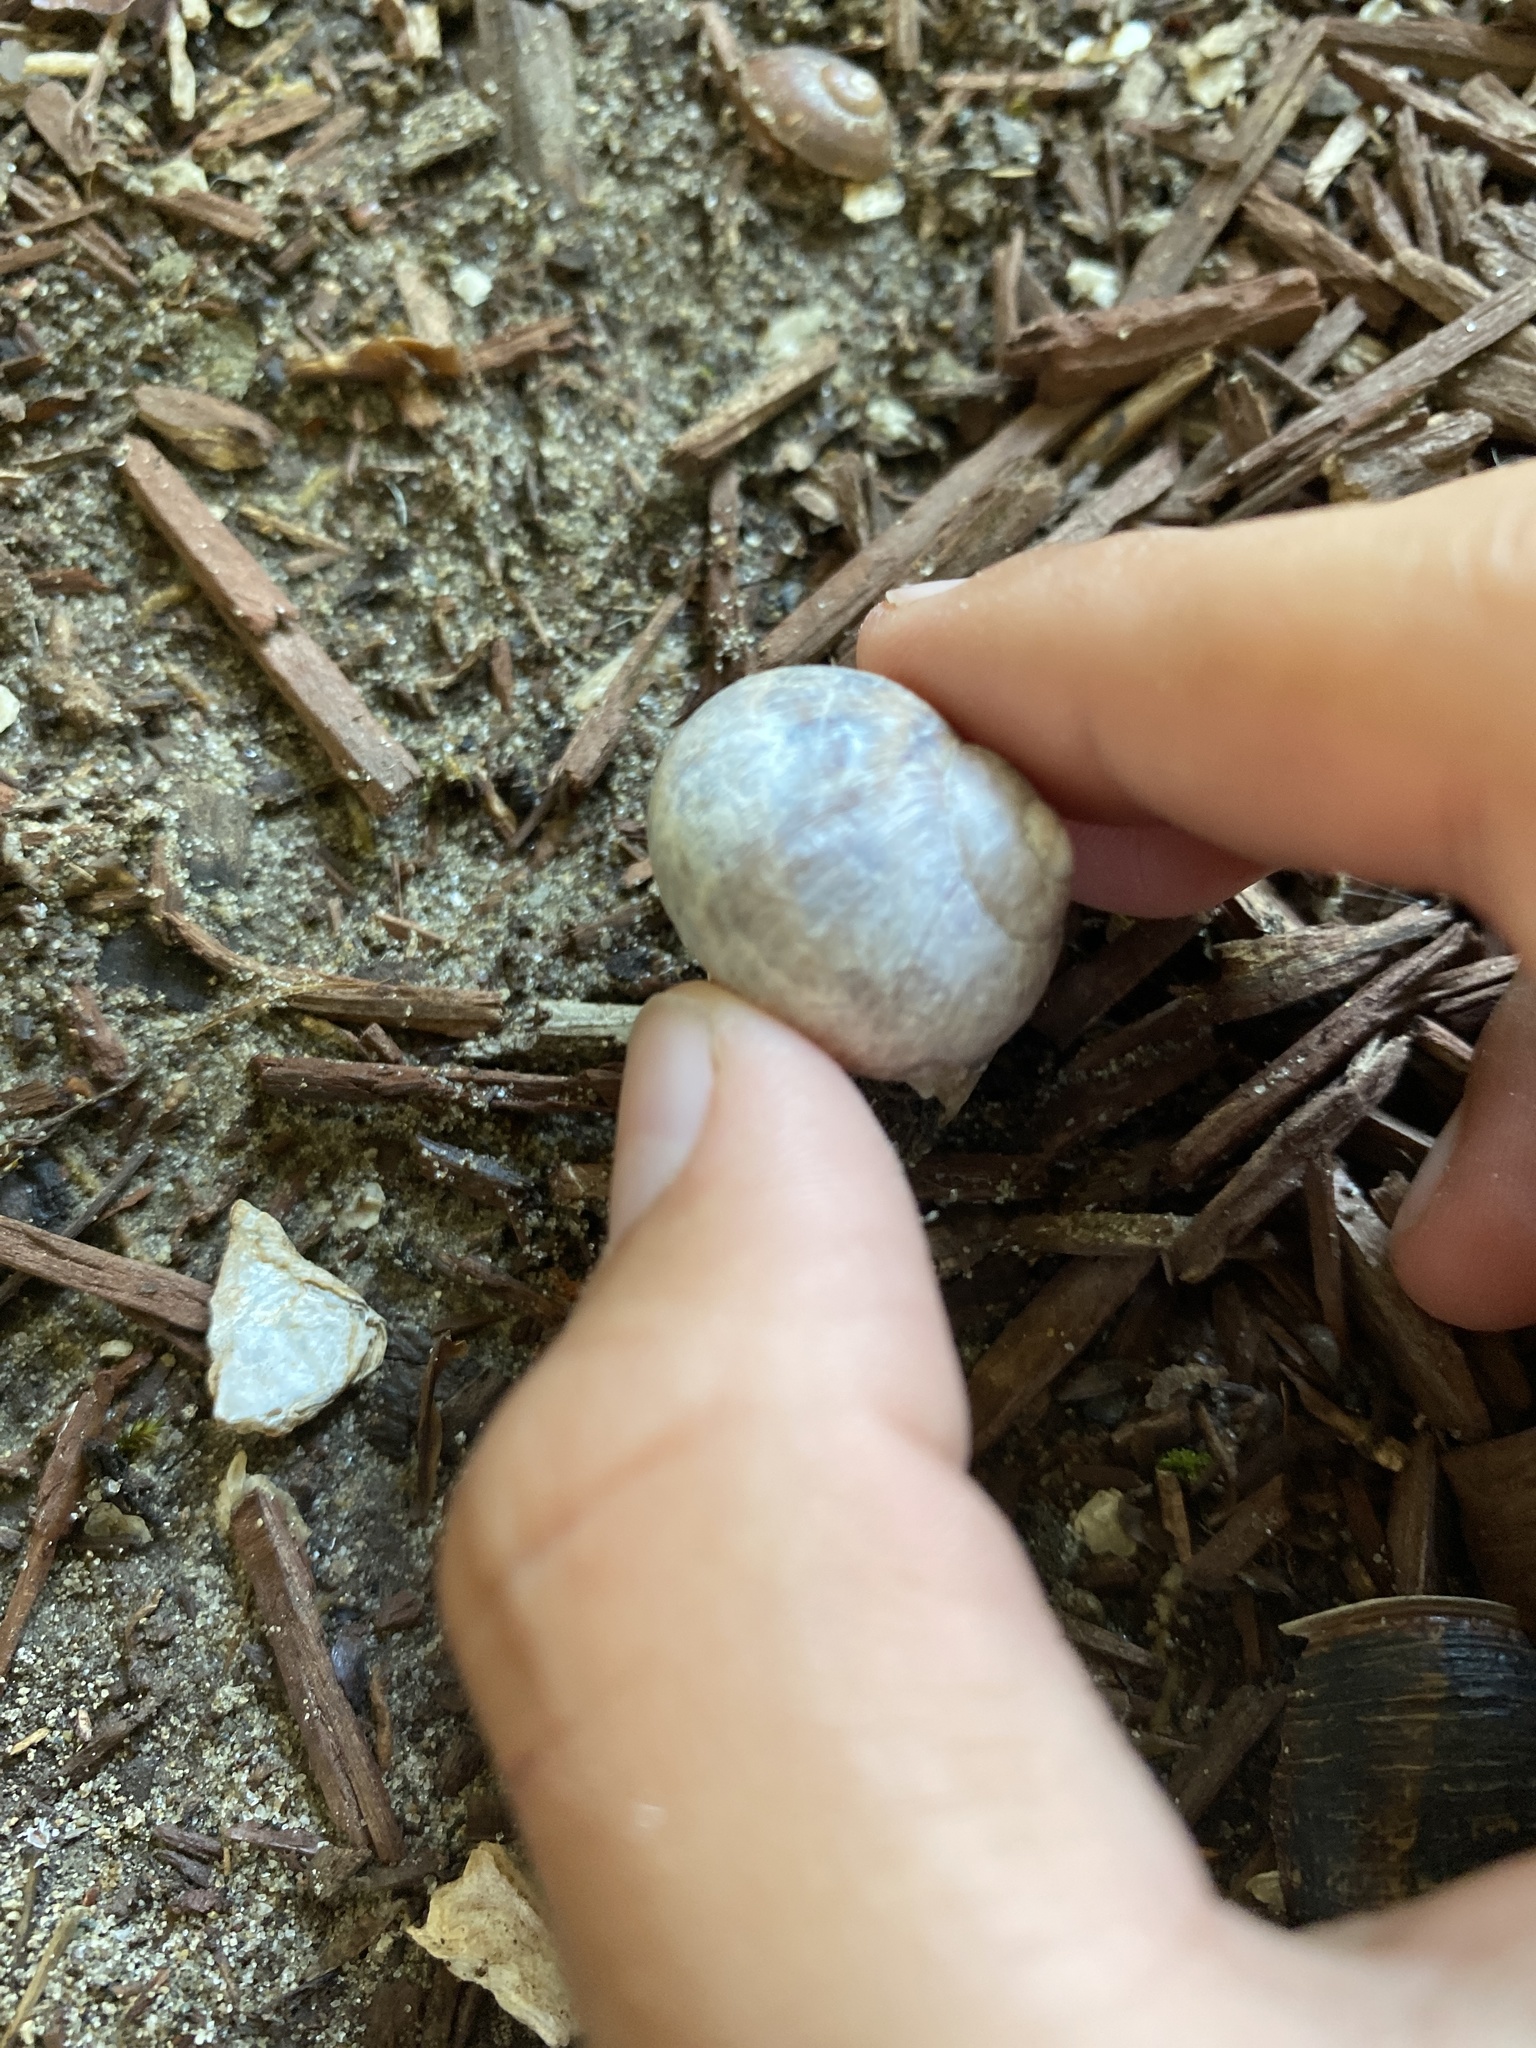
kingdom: Animalia
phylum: Mollusca
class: Gastropoda
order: Stylommatophora
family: Helicidae
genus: Cornu
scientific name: Cornu aspersum
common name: Brown garden snail
